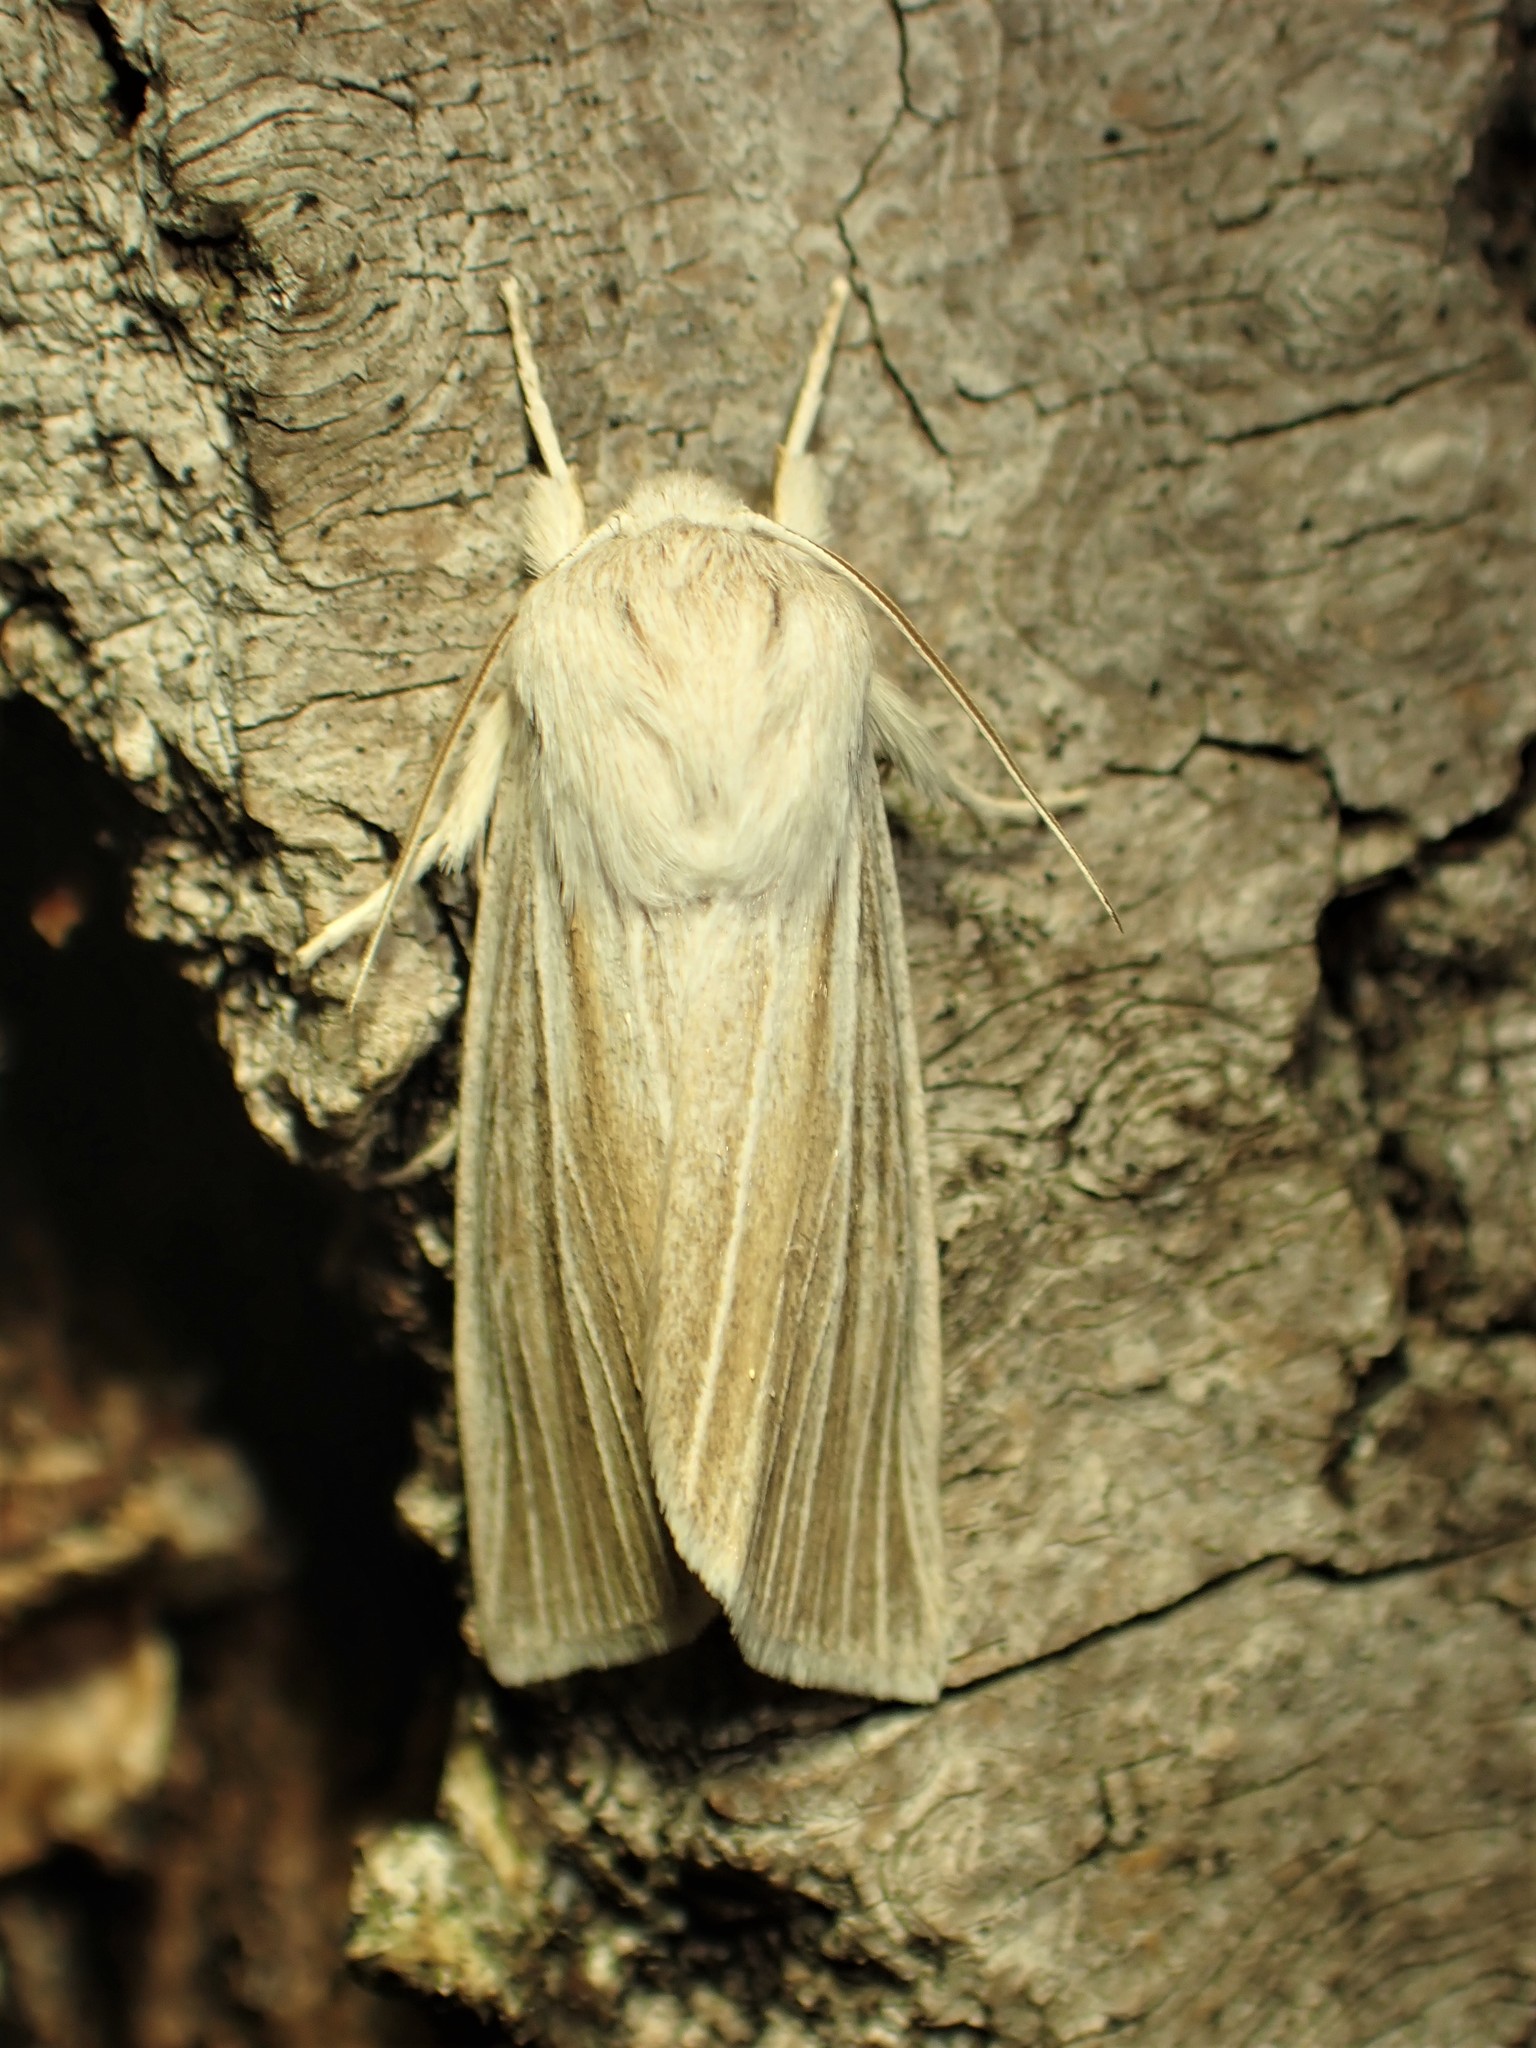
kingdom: Animalia
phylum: Arthropoda
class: Insecta
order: Lepidoptera
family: Noctuidae
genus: Acronicta
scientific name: Acronicta insularis
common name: Henry's marsh moth
